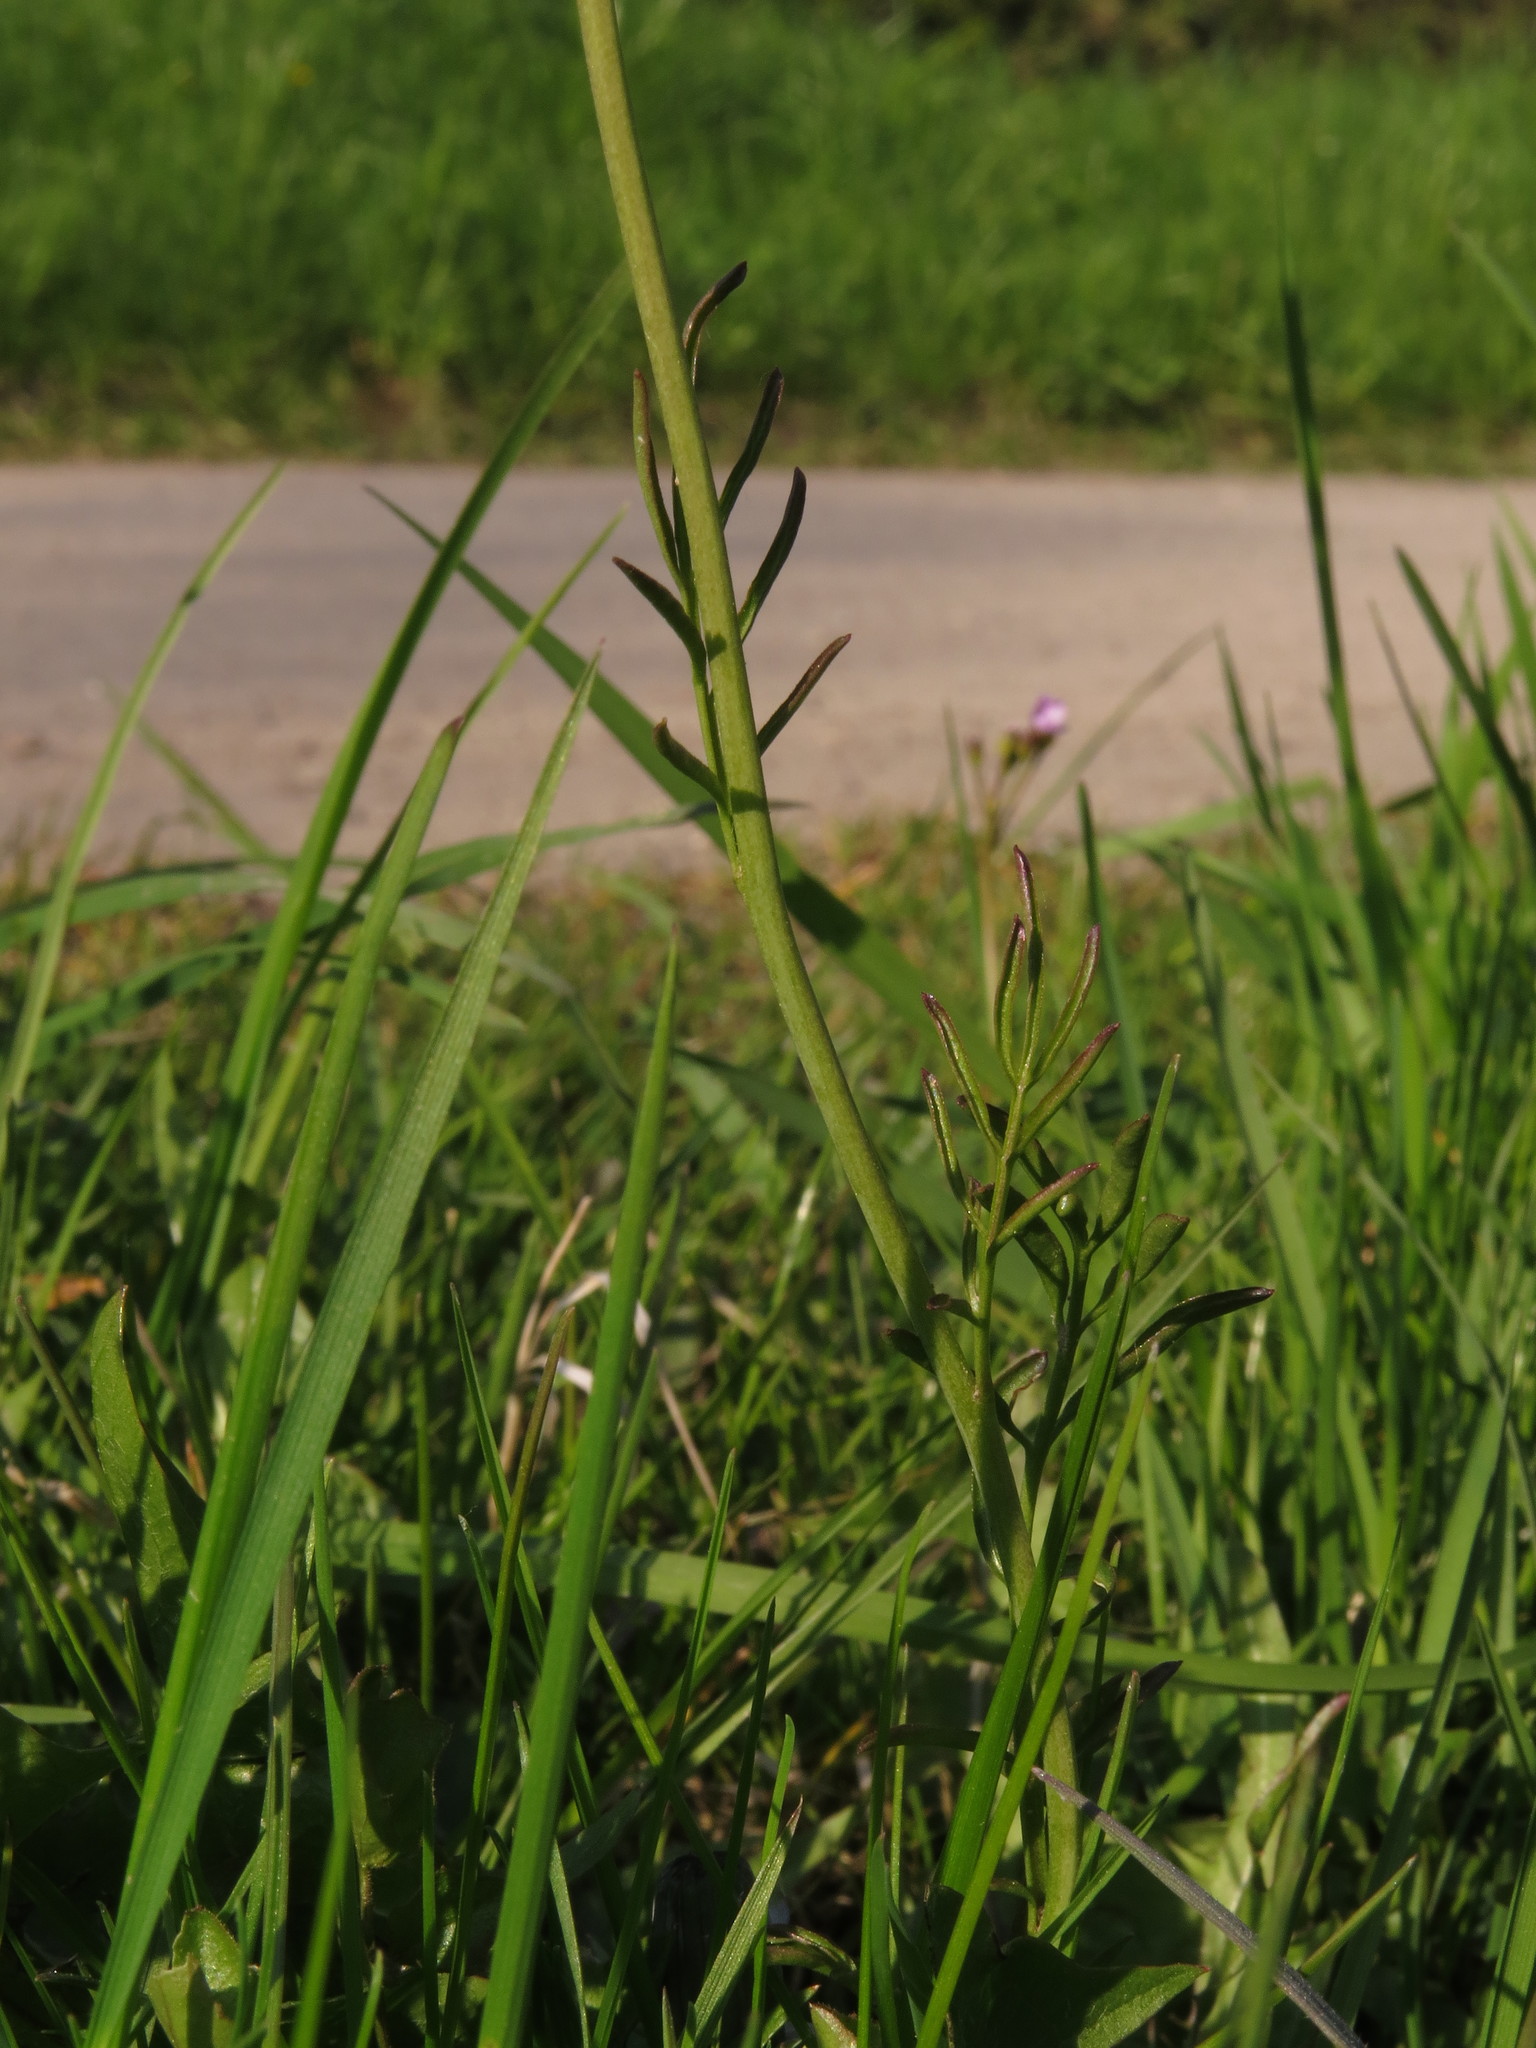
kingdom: Plantae
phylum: Tracheophyta
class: Magnoliopsida
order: Brassicales
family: Brassicaceae
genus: Cardamine
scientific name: Cardamine pratensis
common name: Cuckoo flower
